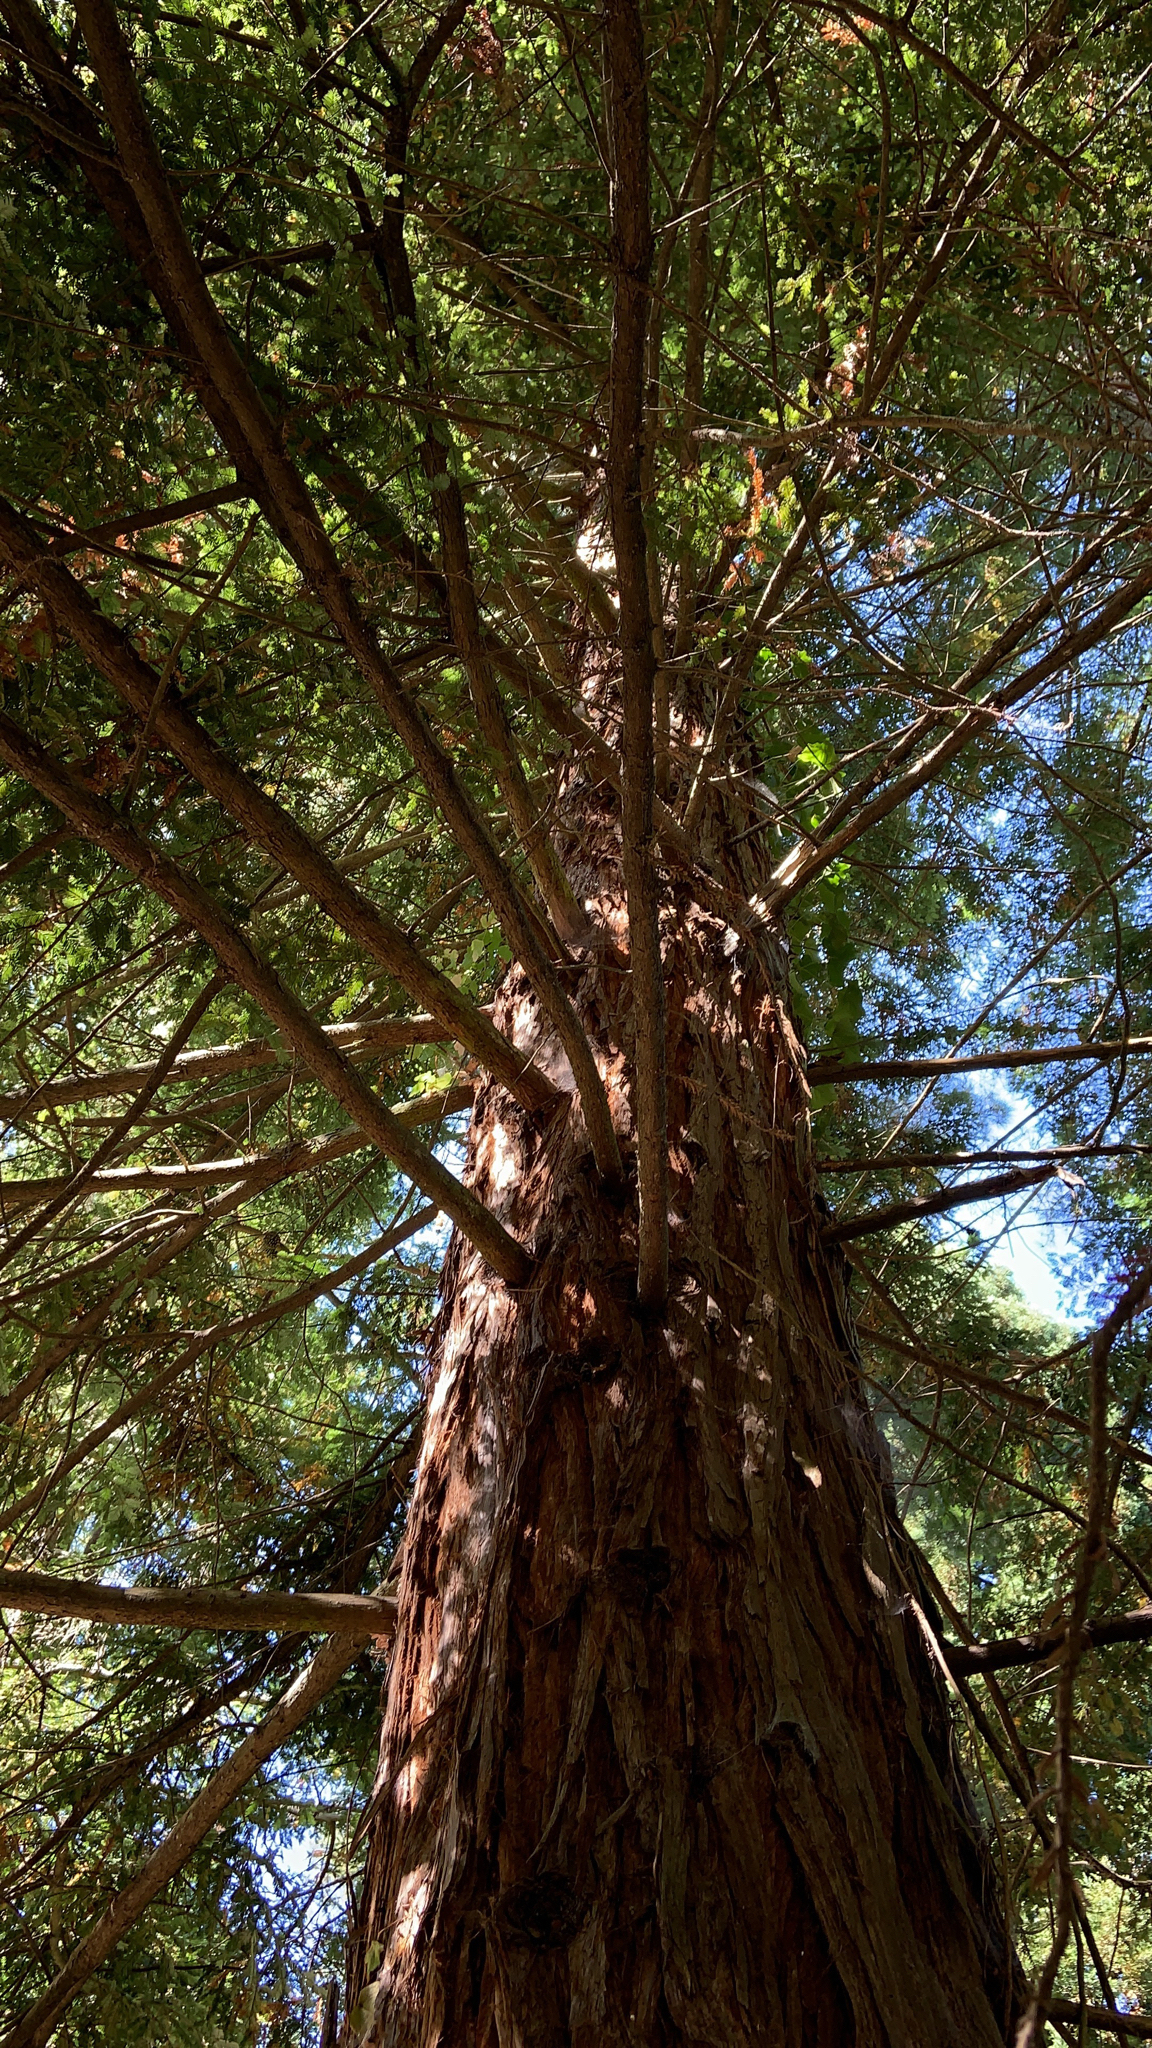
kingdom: Plantae
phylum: Tracheophyta
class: Pinopsida
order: Pinales
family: Cupressaceae
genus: Sequoia
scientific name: Sequoia sempervirens
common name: Coast redwood
